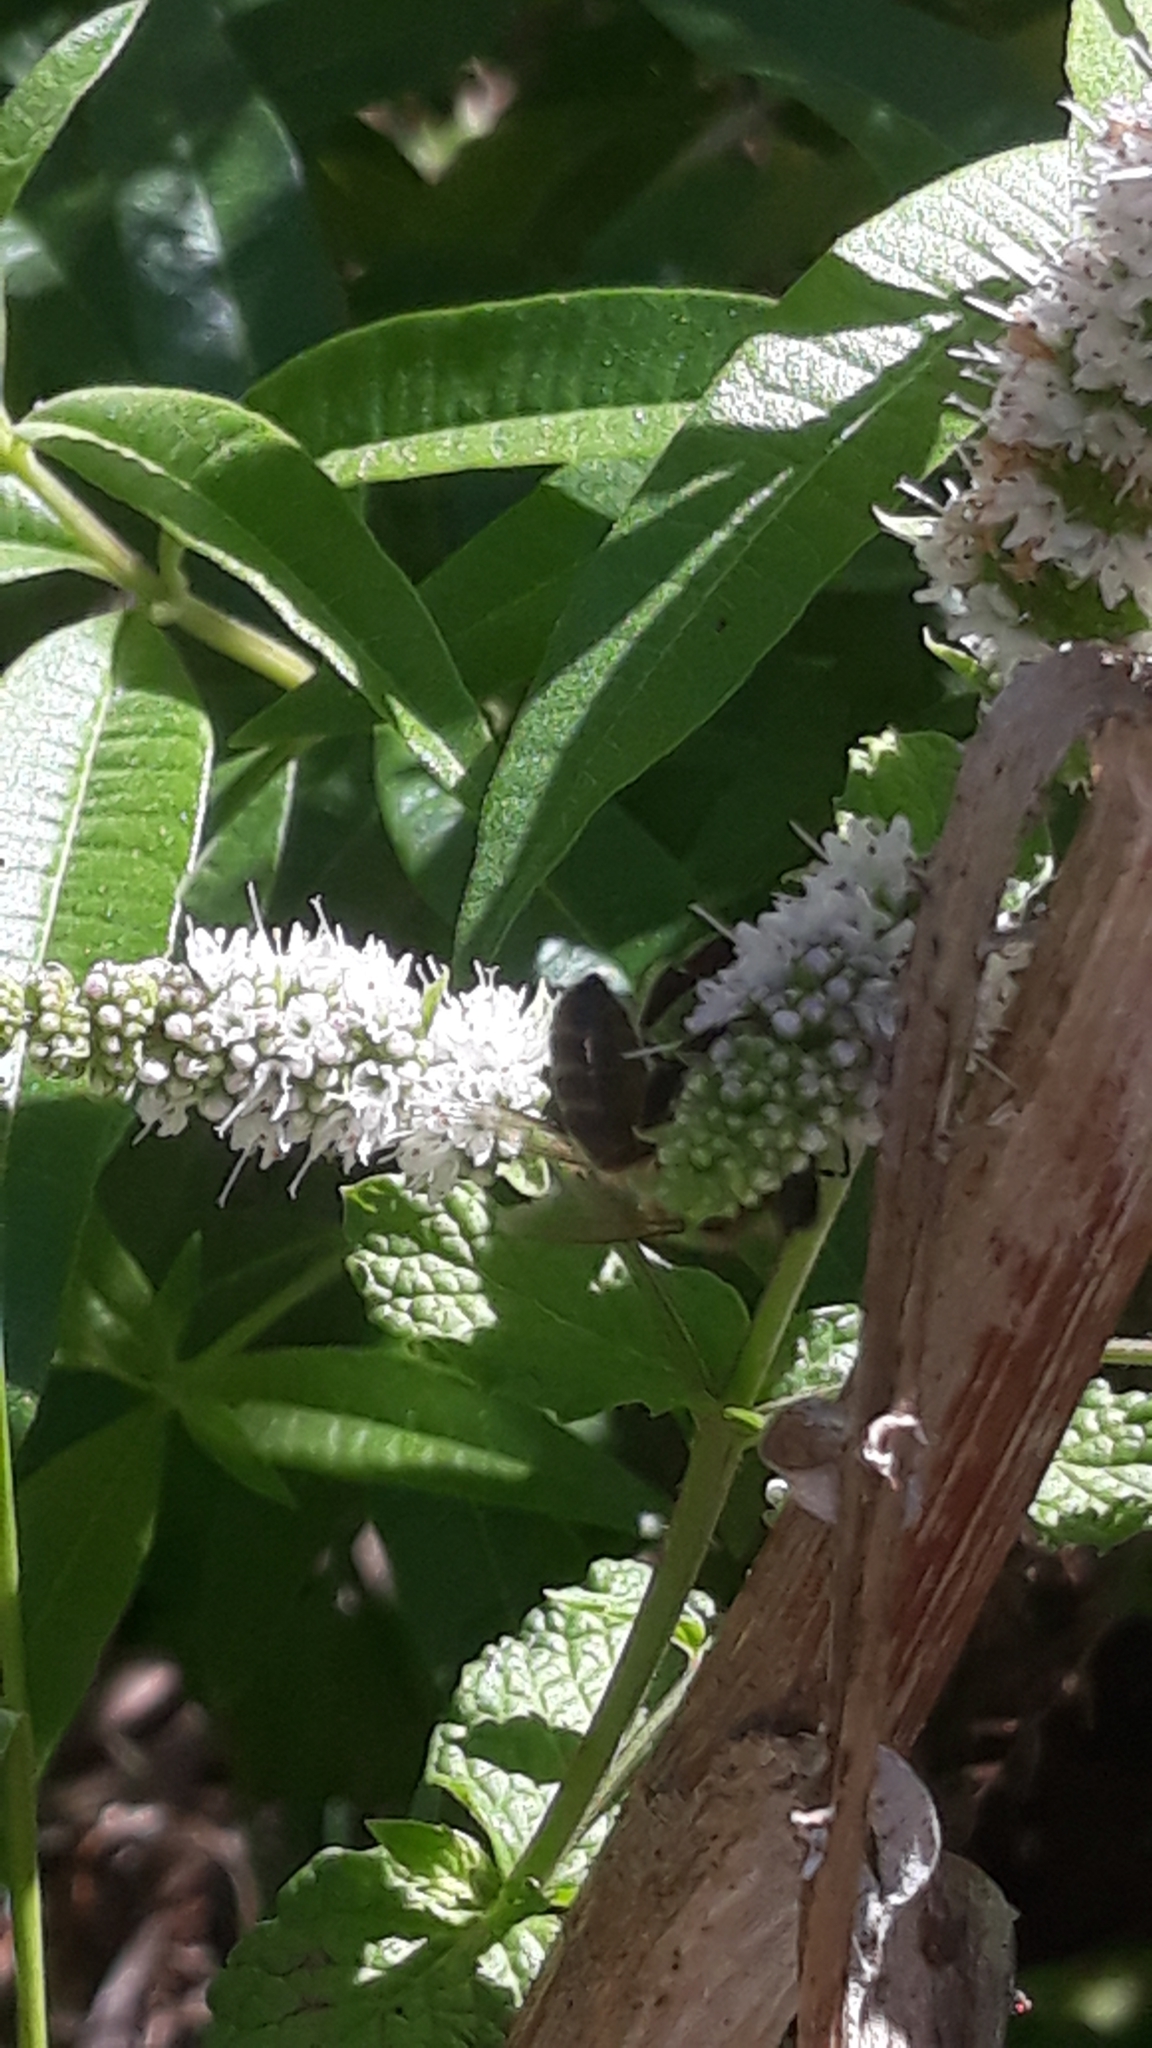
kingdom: Animalia
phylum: Arthropoda
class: Insecta
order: Hymenoptera
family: Apidae
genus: Apis
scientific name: Apis mellifera
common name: Honey bee
